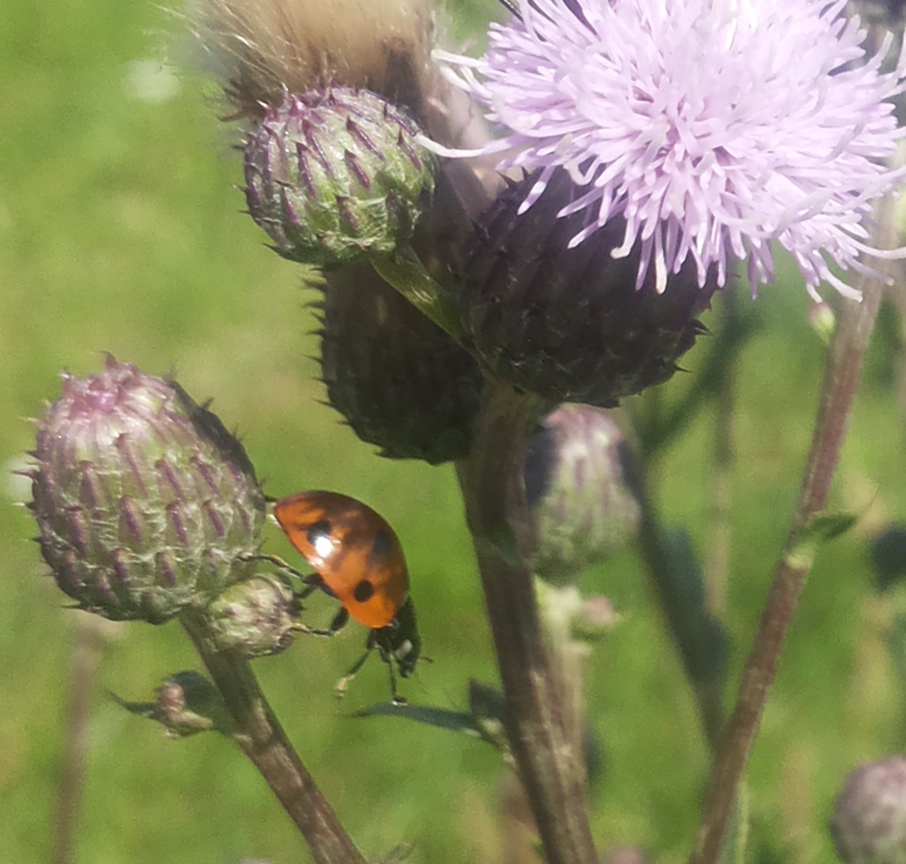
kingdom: Animalia
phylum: Arthropoda
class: Insecta
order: Coleoptera
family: Coccinellidae
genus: Coccinella
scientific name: Coccinella septempunctata
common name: Sevenspotted lady beetle
